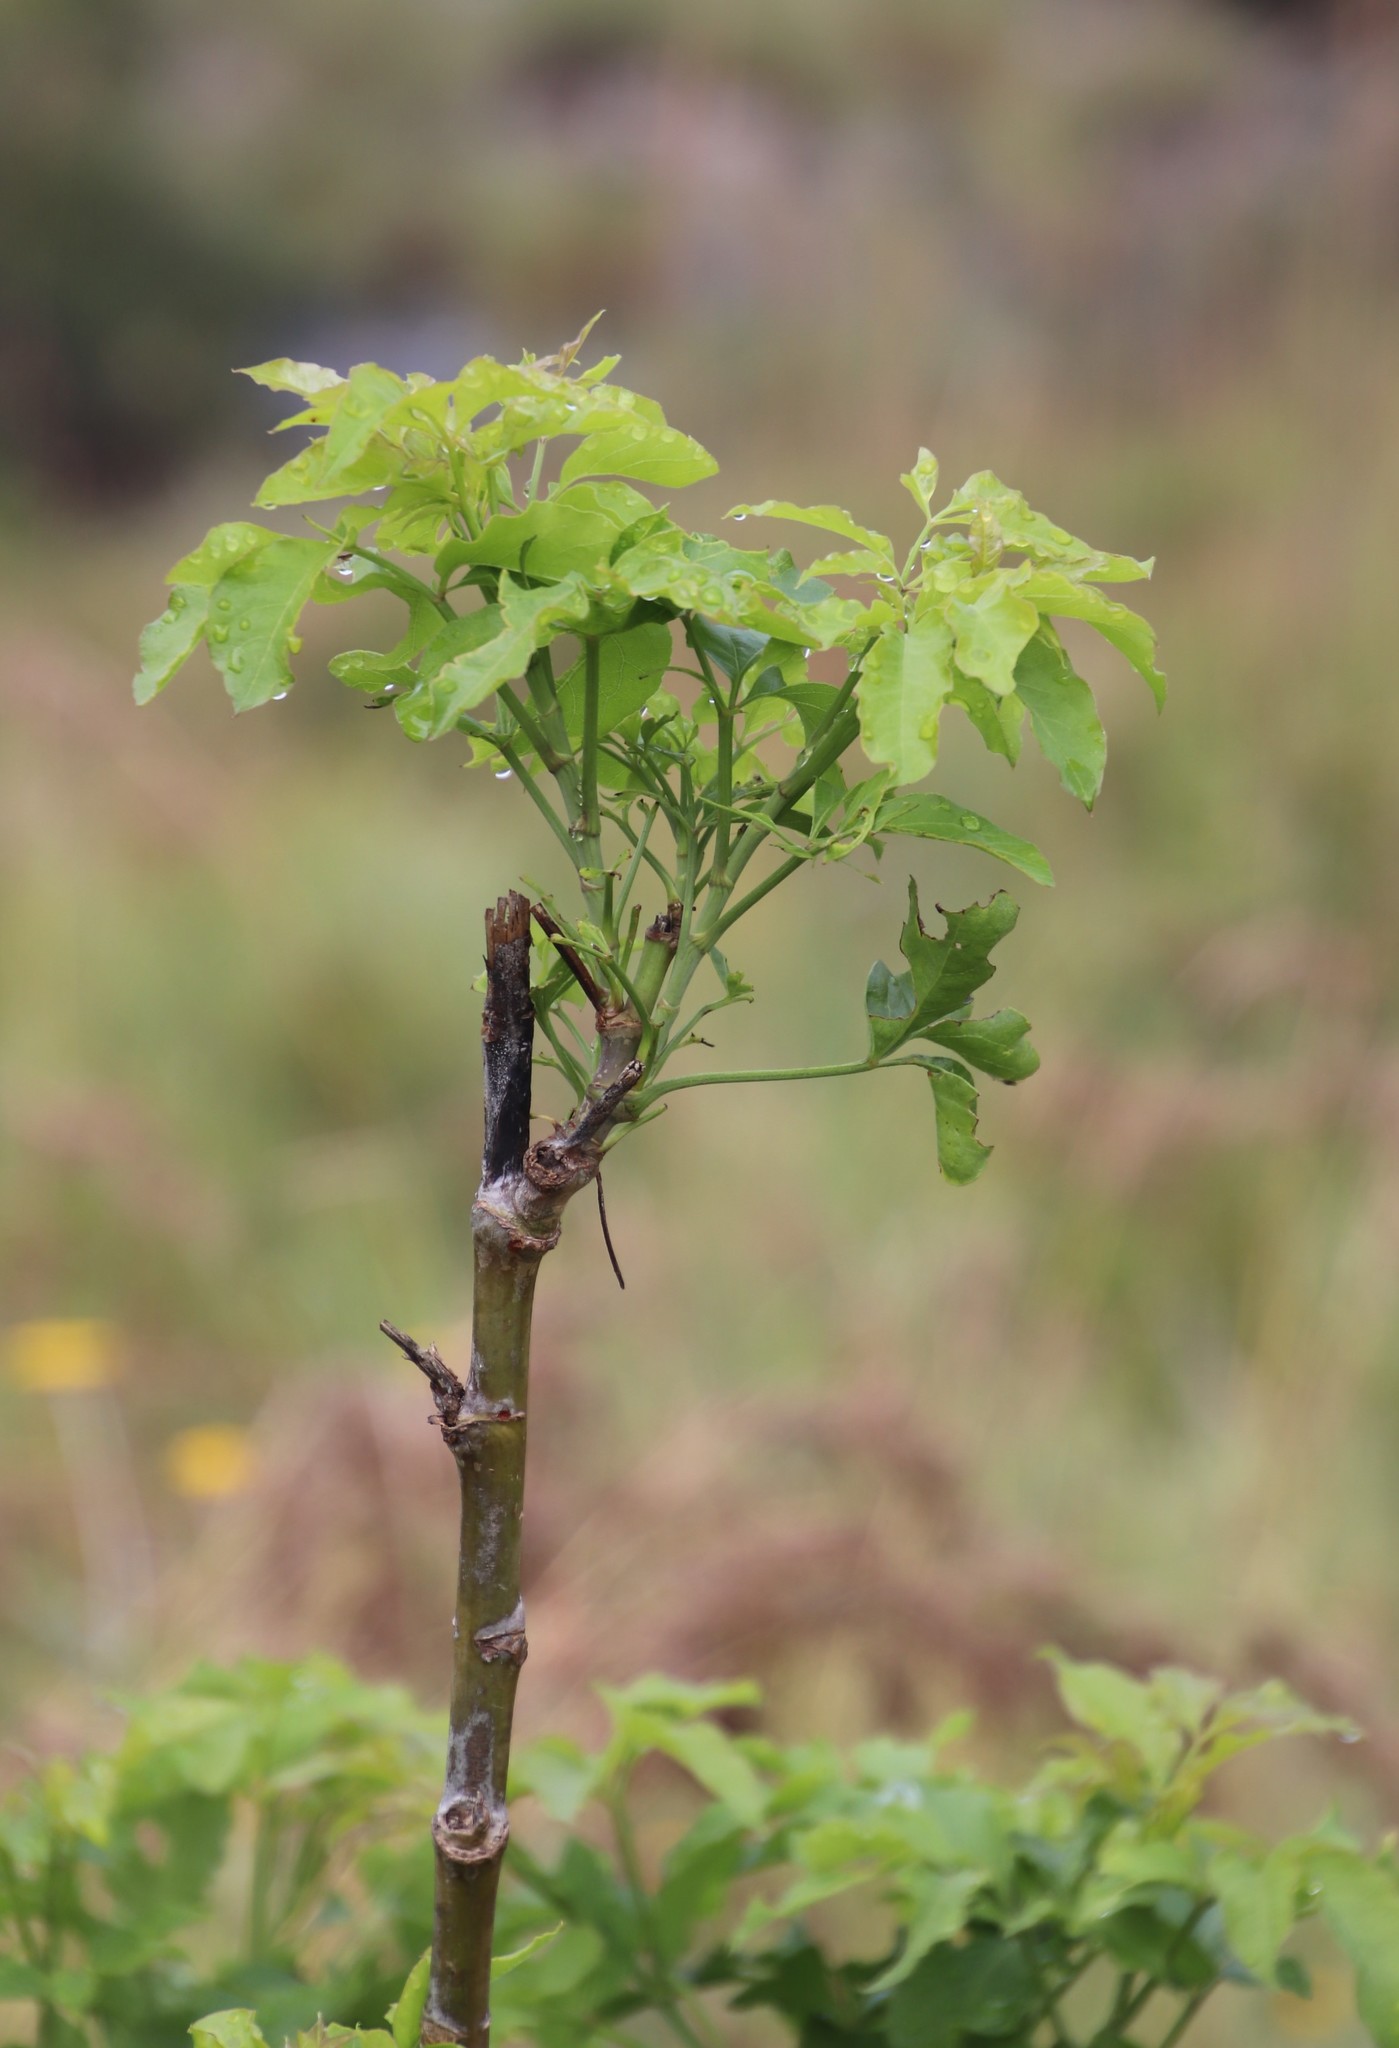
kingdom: Plantae
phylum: Tracheophyta
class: Magnoliopsida
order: Apiales
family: Apiaceae
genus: Heteromorpha
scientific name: Heteromorpha arborescens
